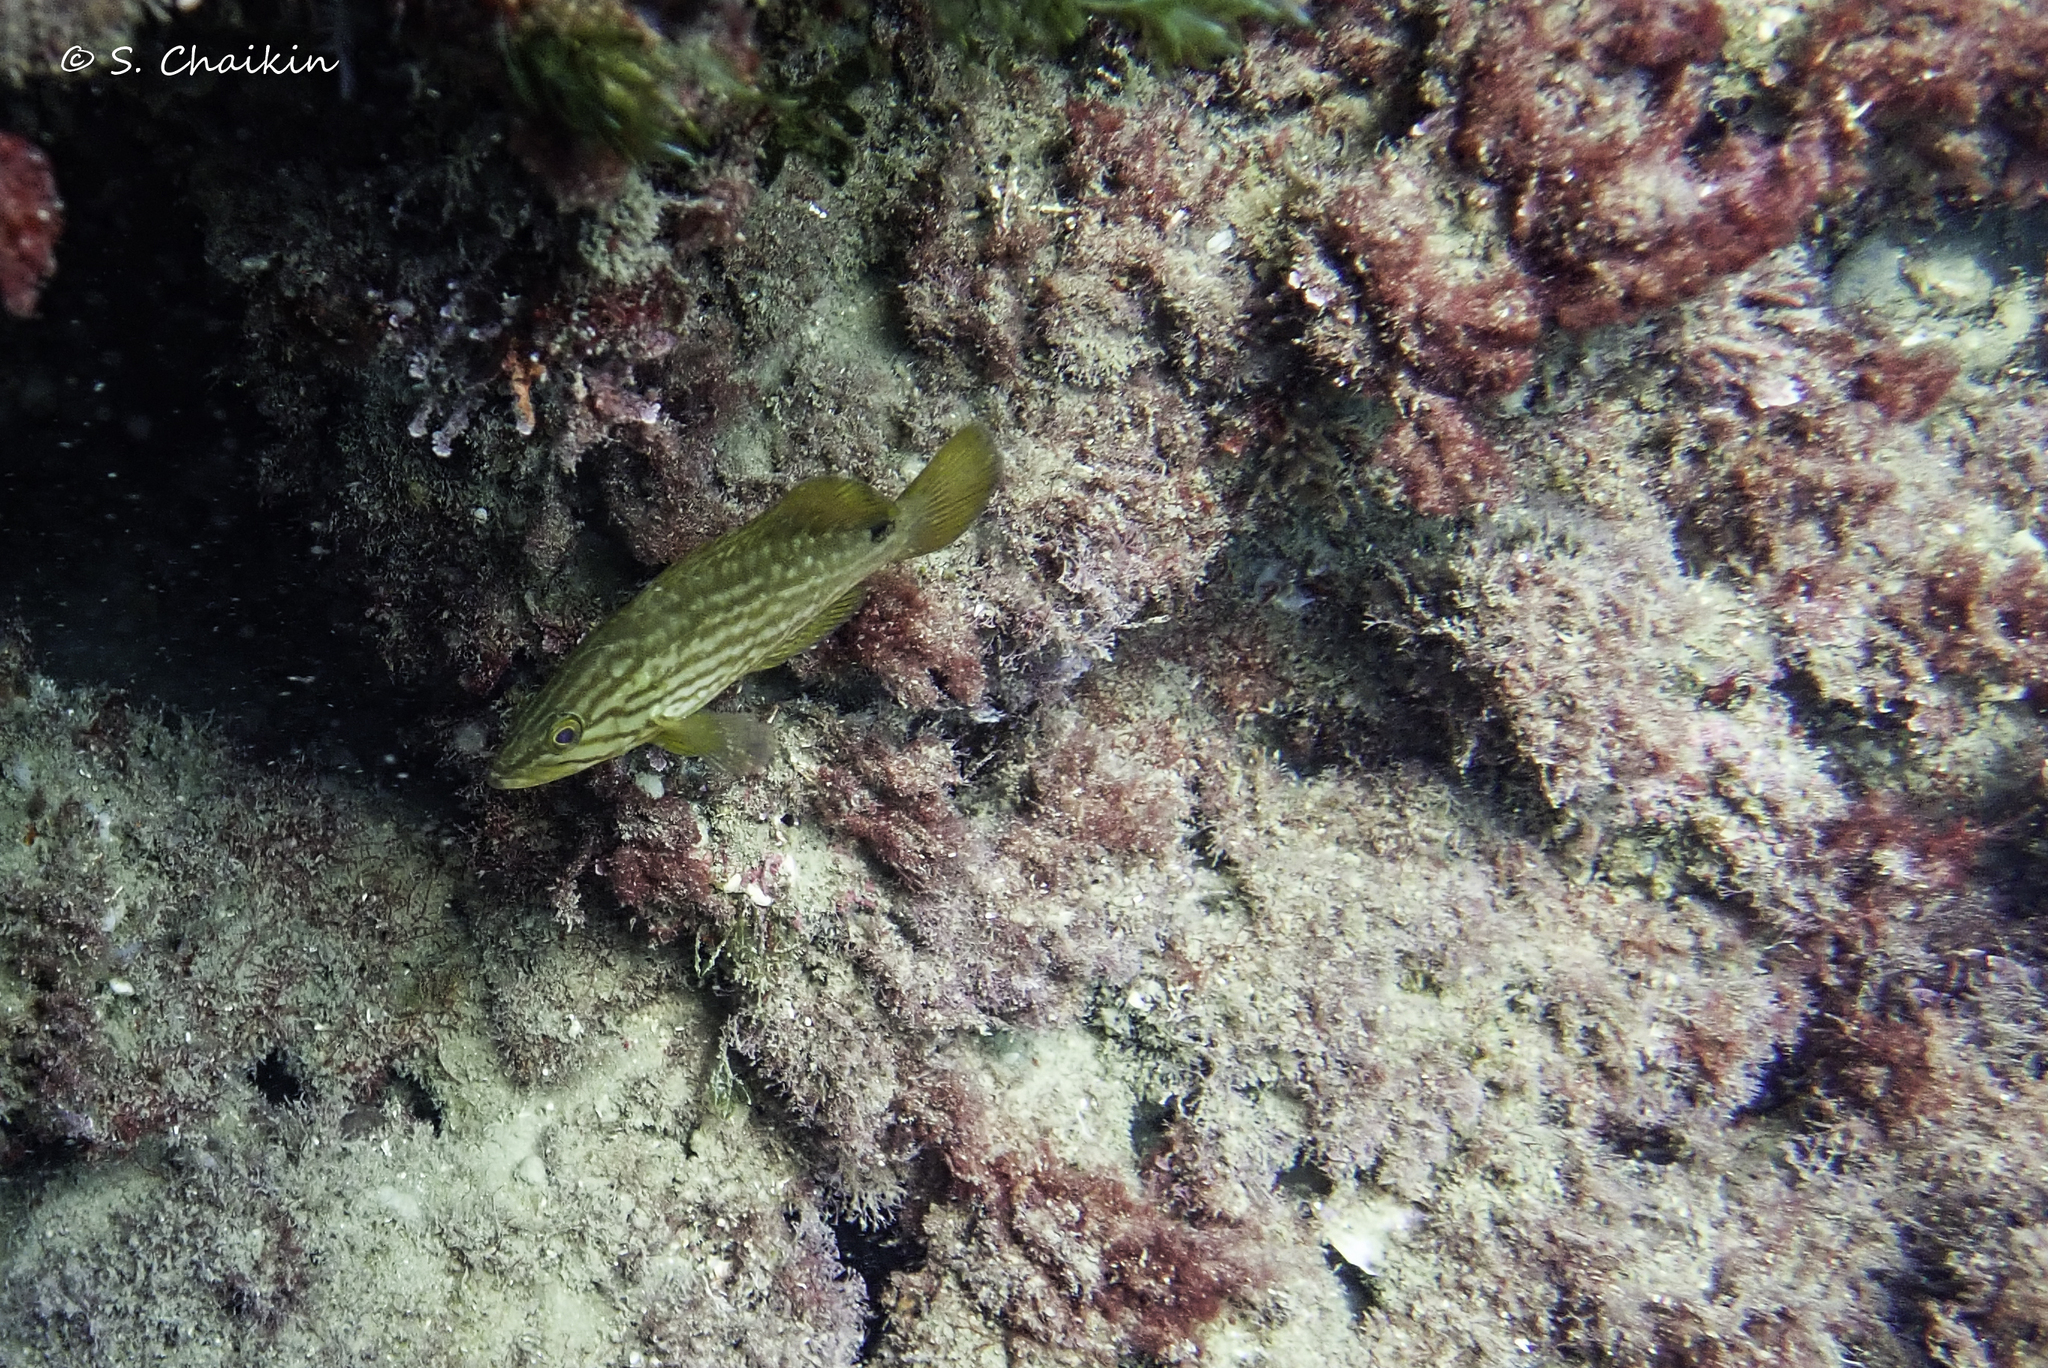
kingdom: Animalia
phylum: Chordata
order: Perciformes
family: Serranidae
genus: Mycteroperca
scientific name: Mycteroperca rubra
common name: Comb grouper
